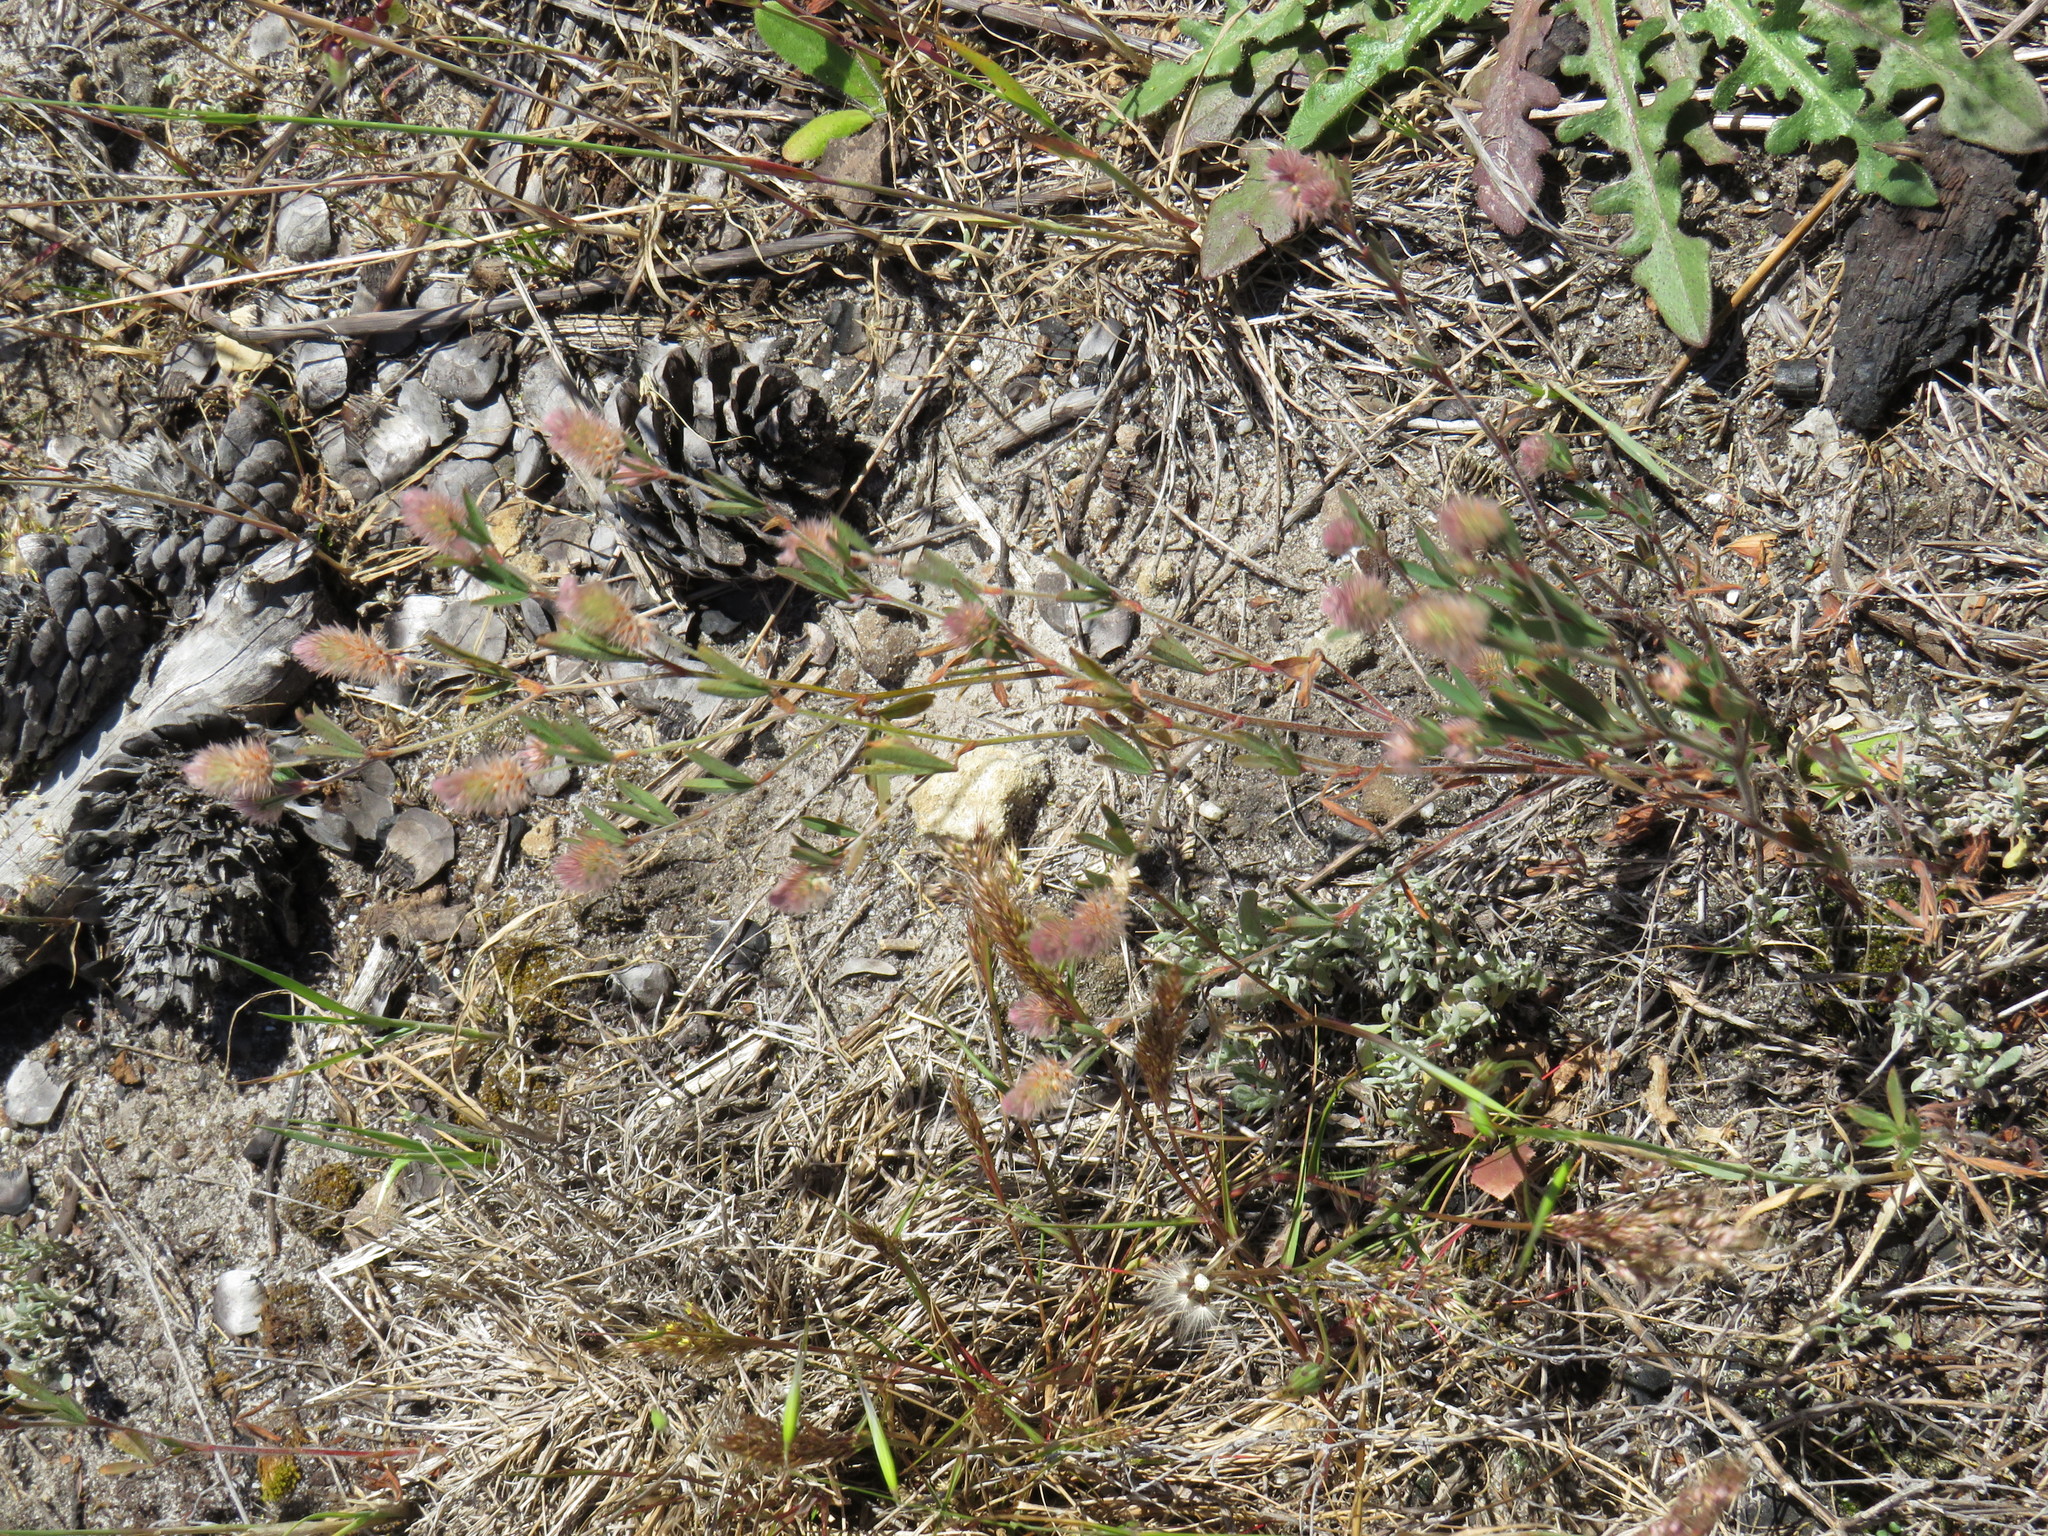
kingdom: Plantae
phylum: Tracheophyta
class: Magnoliopsida
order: Fabales
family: Fabaceae
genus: Trifolium
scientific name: Trifolium arvense
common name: Hare's-foot clover
